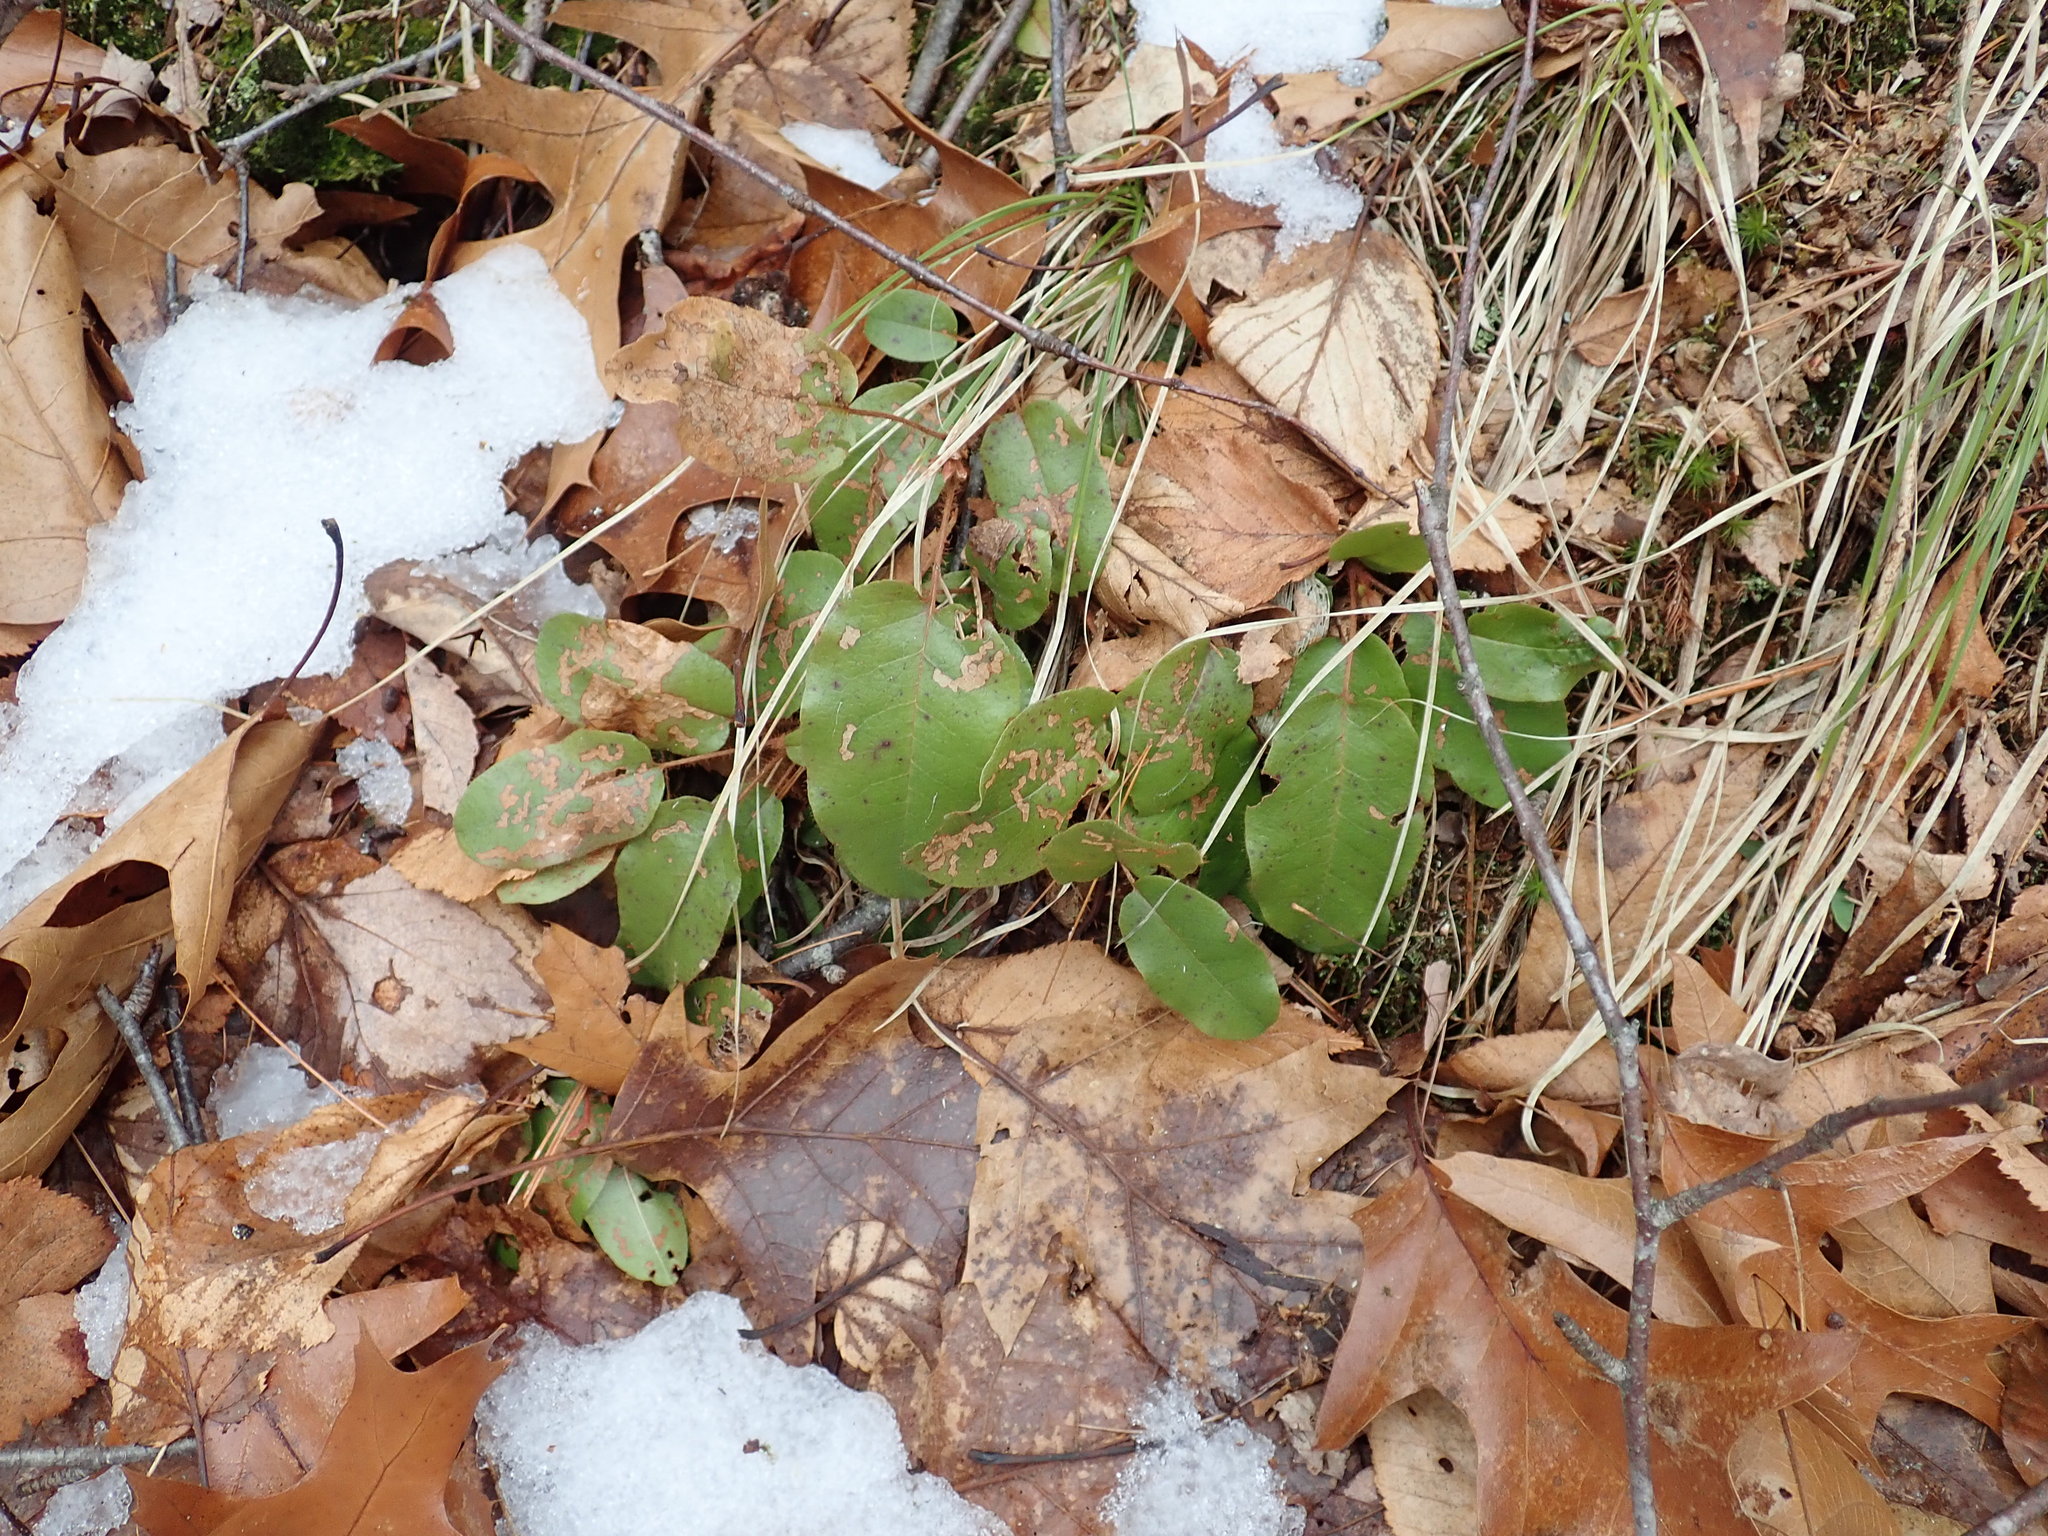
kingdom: Plantae
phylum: Tracheophyta
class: Magnoliopsida
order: Ericales
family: Ericaceae
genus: Epigaea
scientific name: Epigaea repens
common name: Gravelroot
